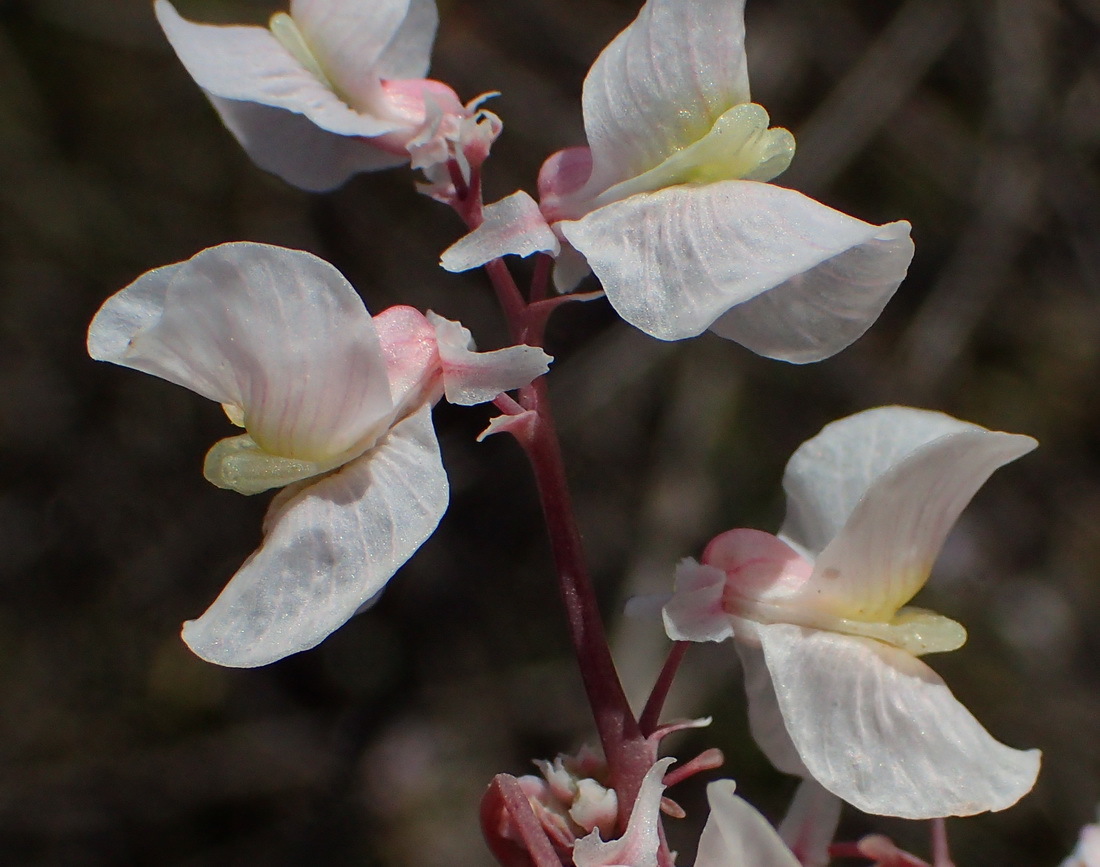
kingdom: Plantae
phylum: Tracheophyta
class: Magnoliopsida
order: Ranunculales
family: Papaveraceae
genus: Cysticapnos
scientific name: Cysticapnos vesicaria
